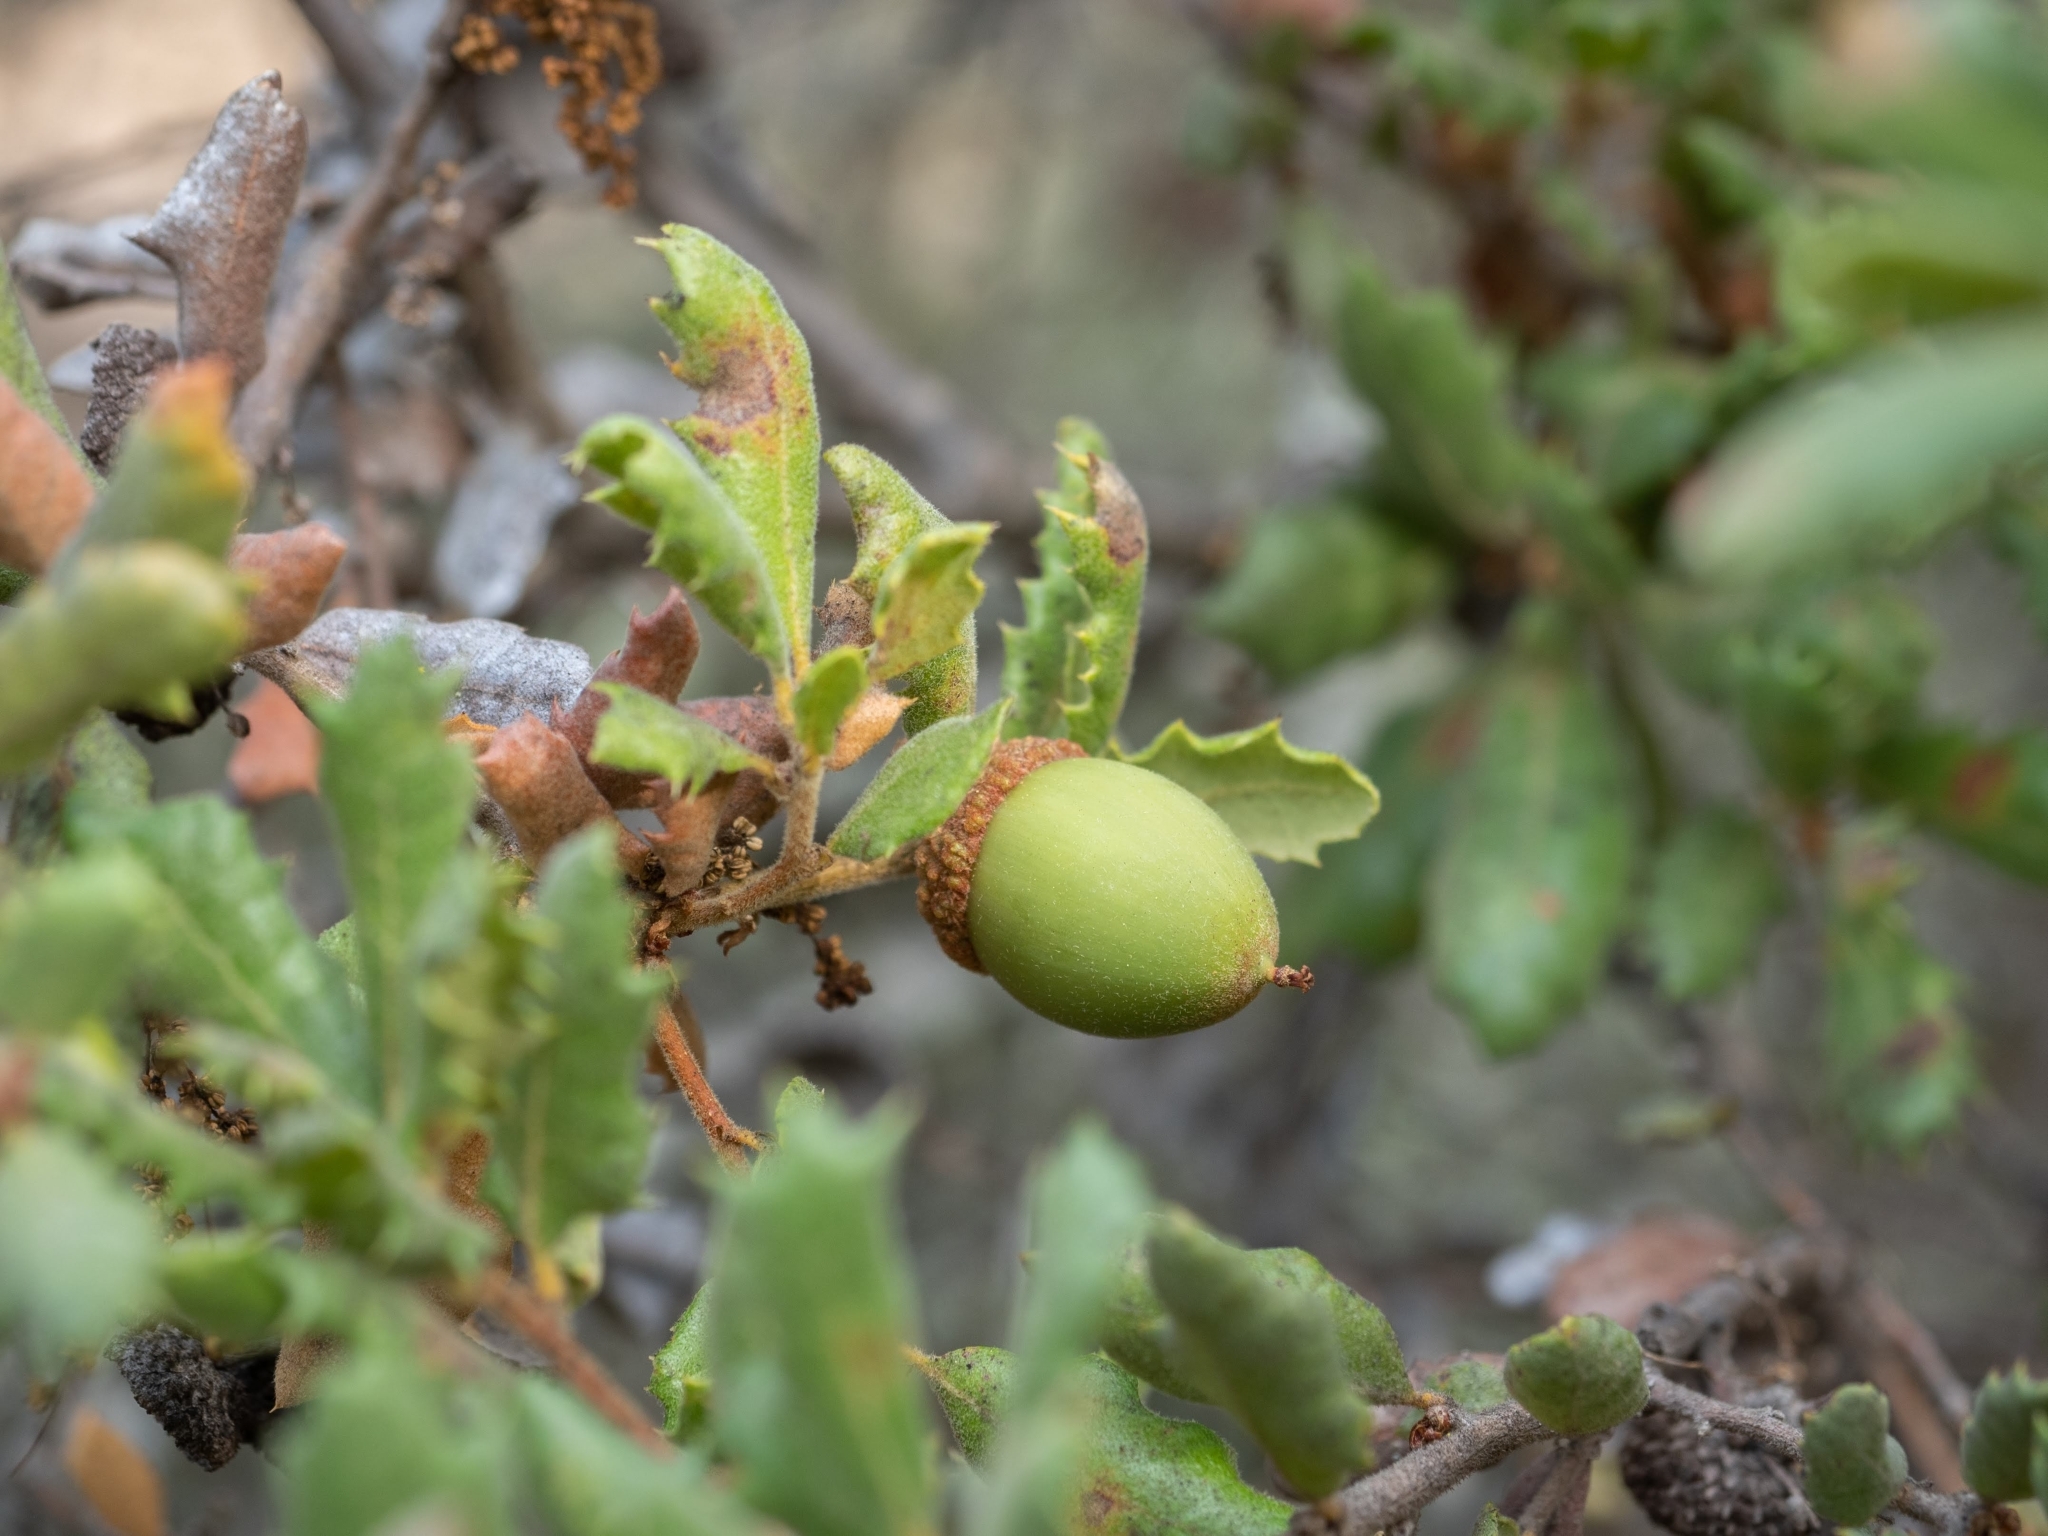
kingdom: Plantae
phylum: Tracheophyta
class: Magnoliopsida
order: Fagales
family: Fagaceae
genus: Quercus
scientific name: Quercus durata
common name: Leather oak
